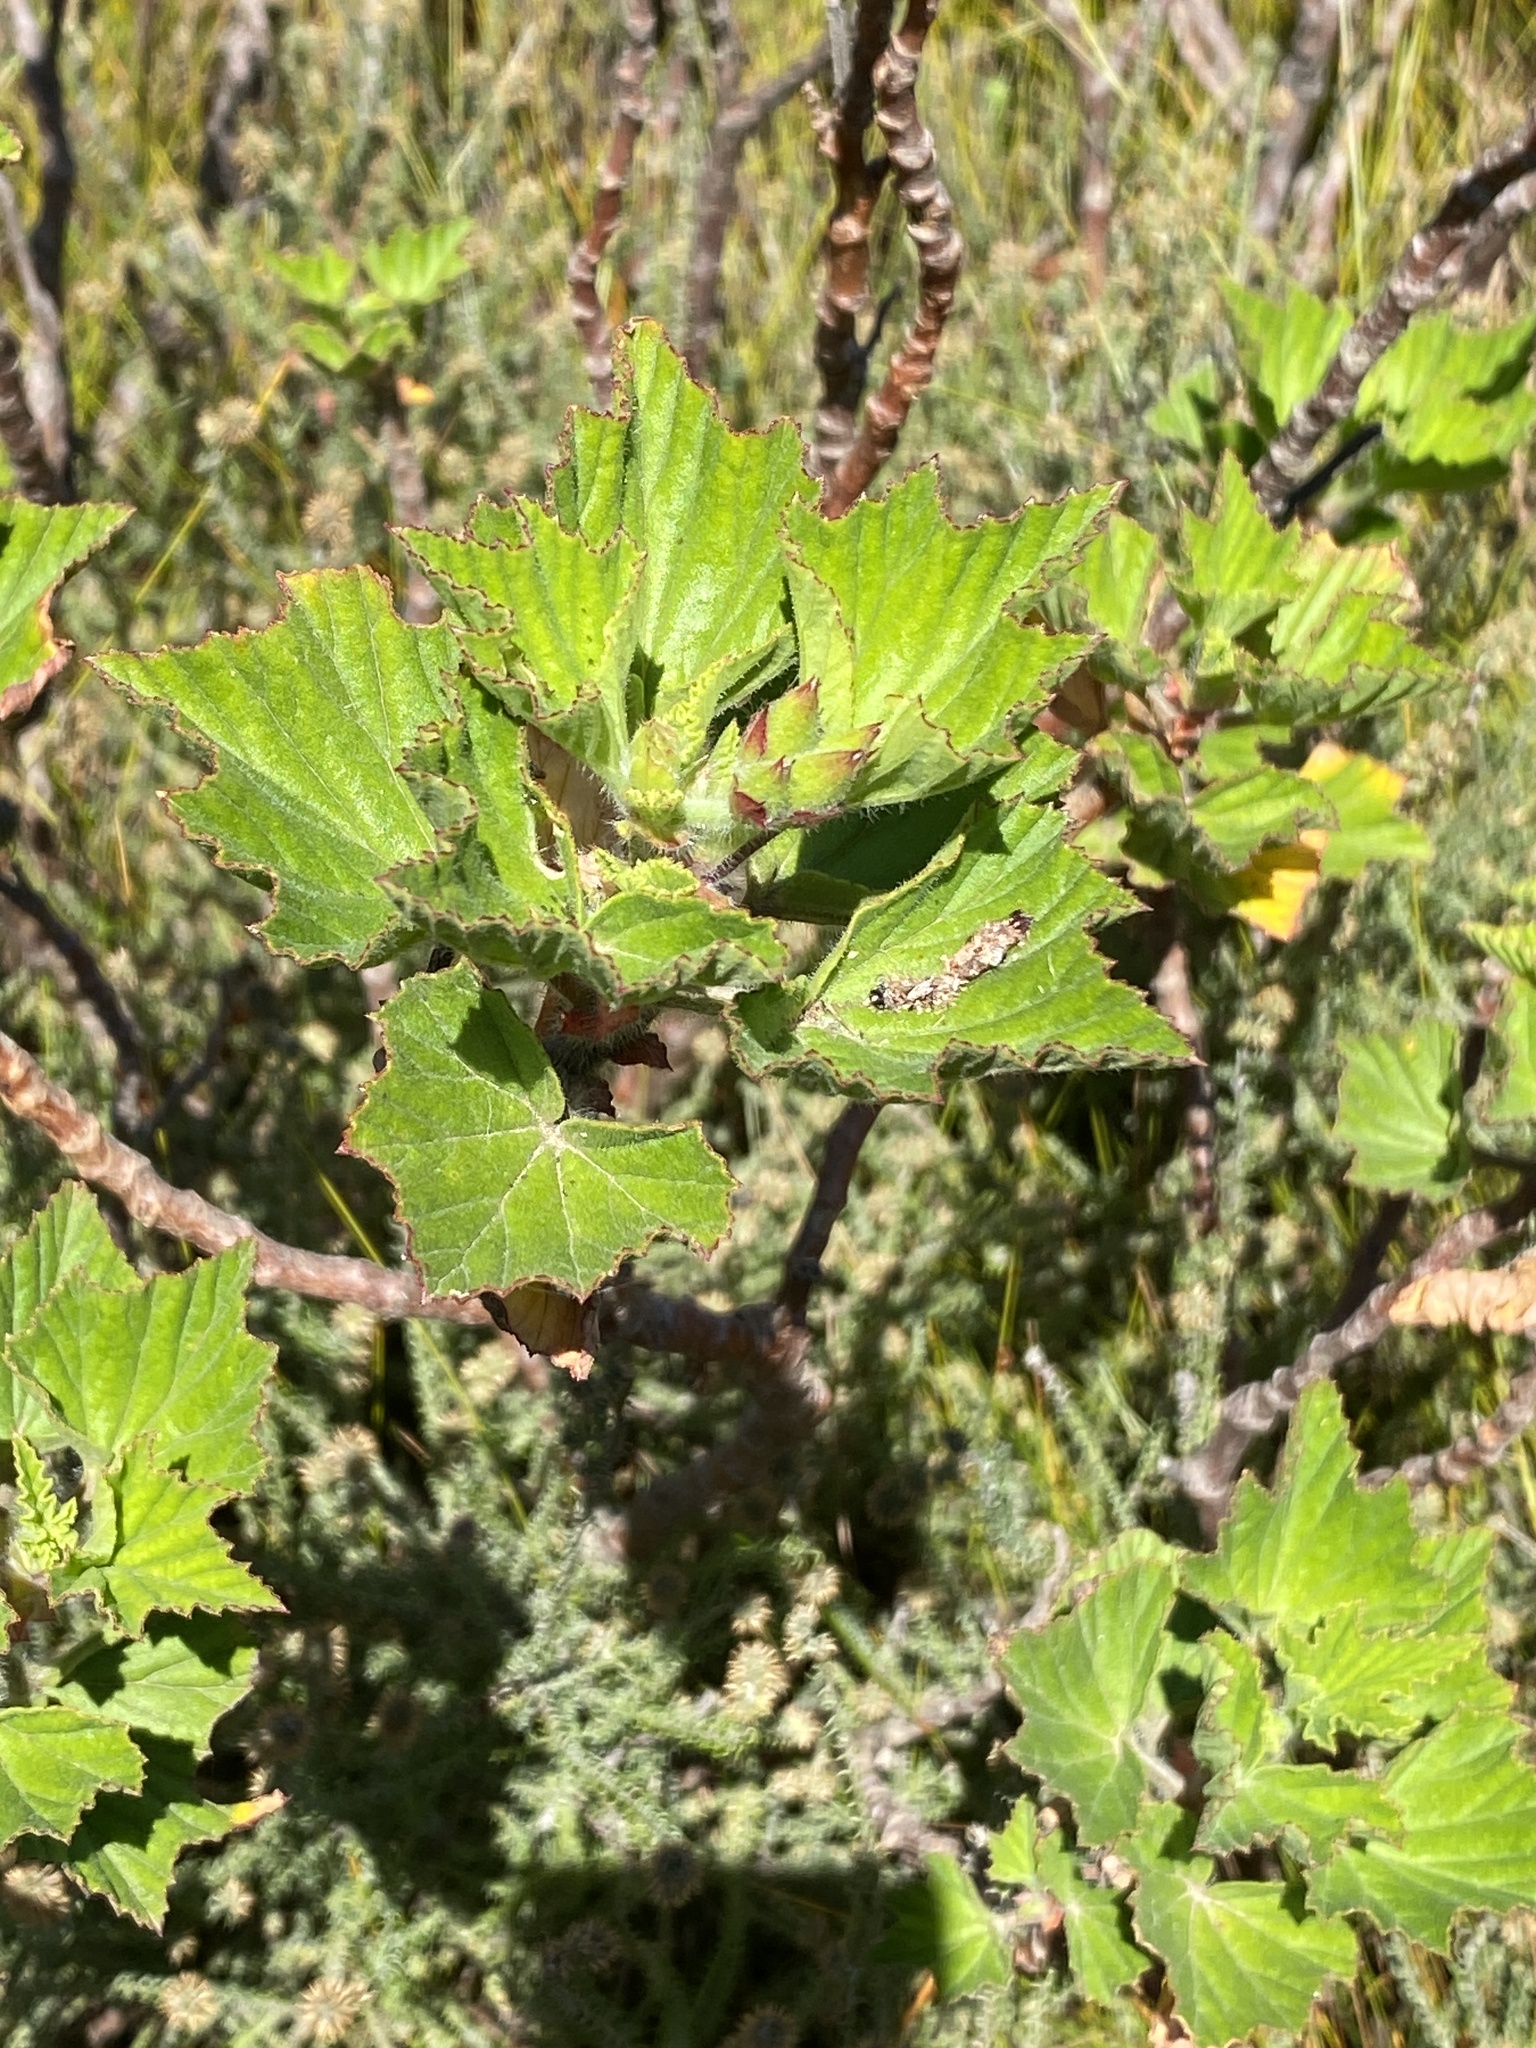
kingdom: Plantae
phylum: Tracheophyta
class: Magnoliopsida
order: Geraniales
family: Geraniaceae
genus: Pelargonium
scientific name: Pelargonium cucullatum
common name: Tree pelargonium
